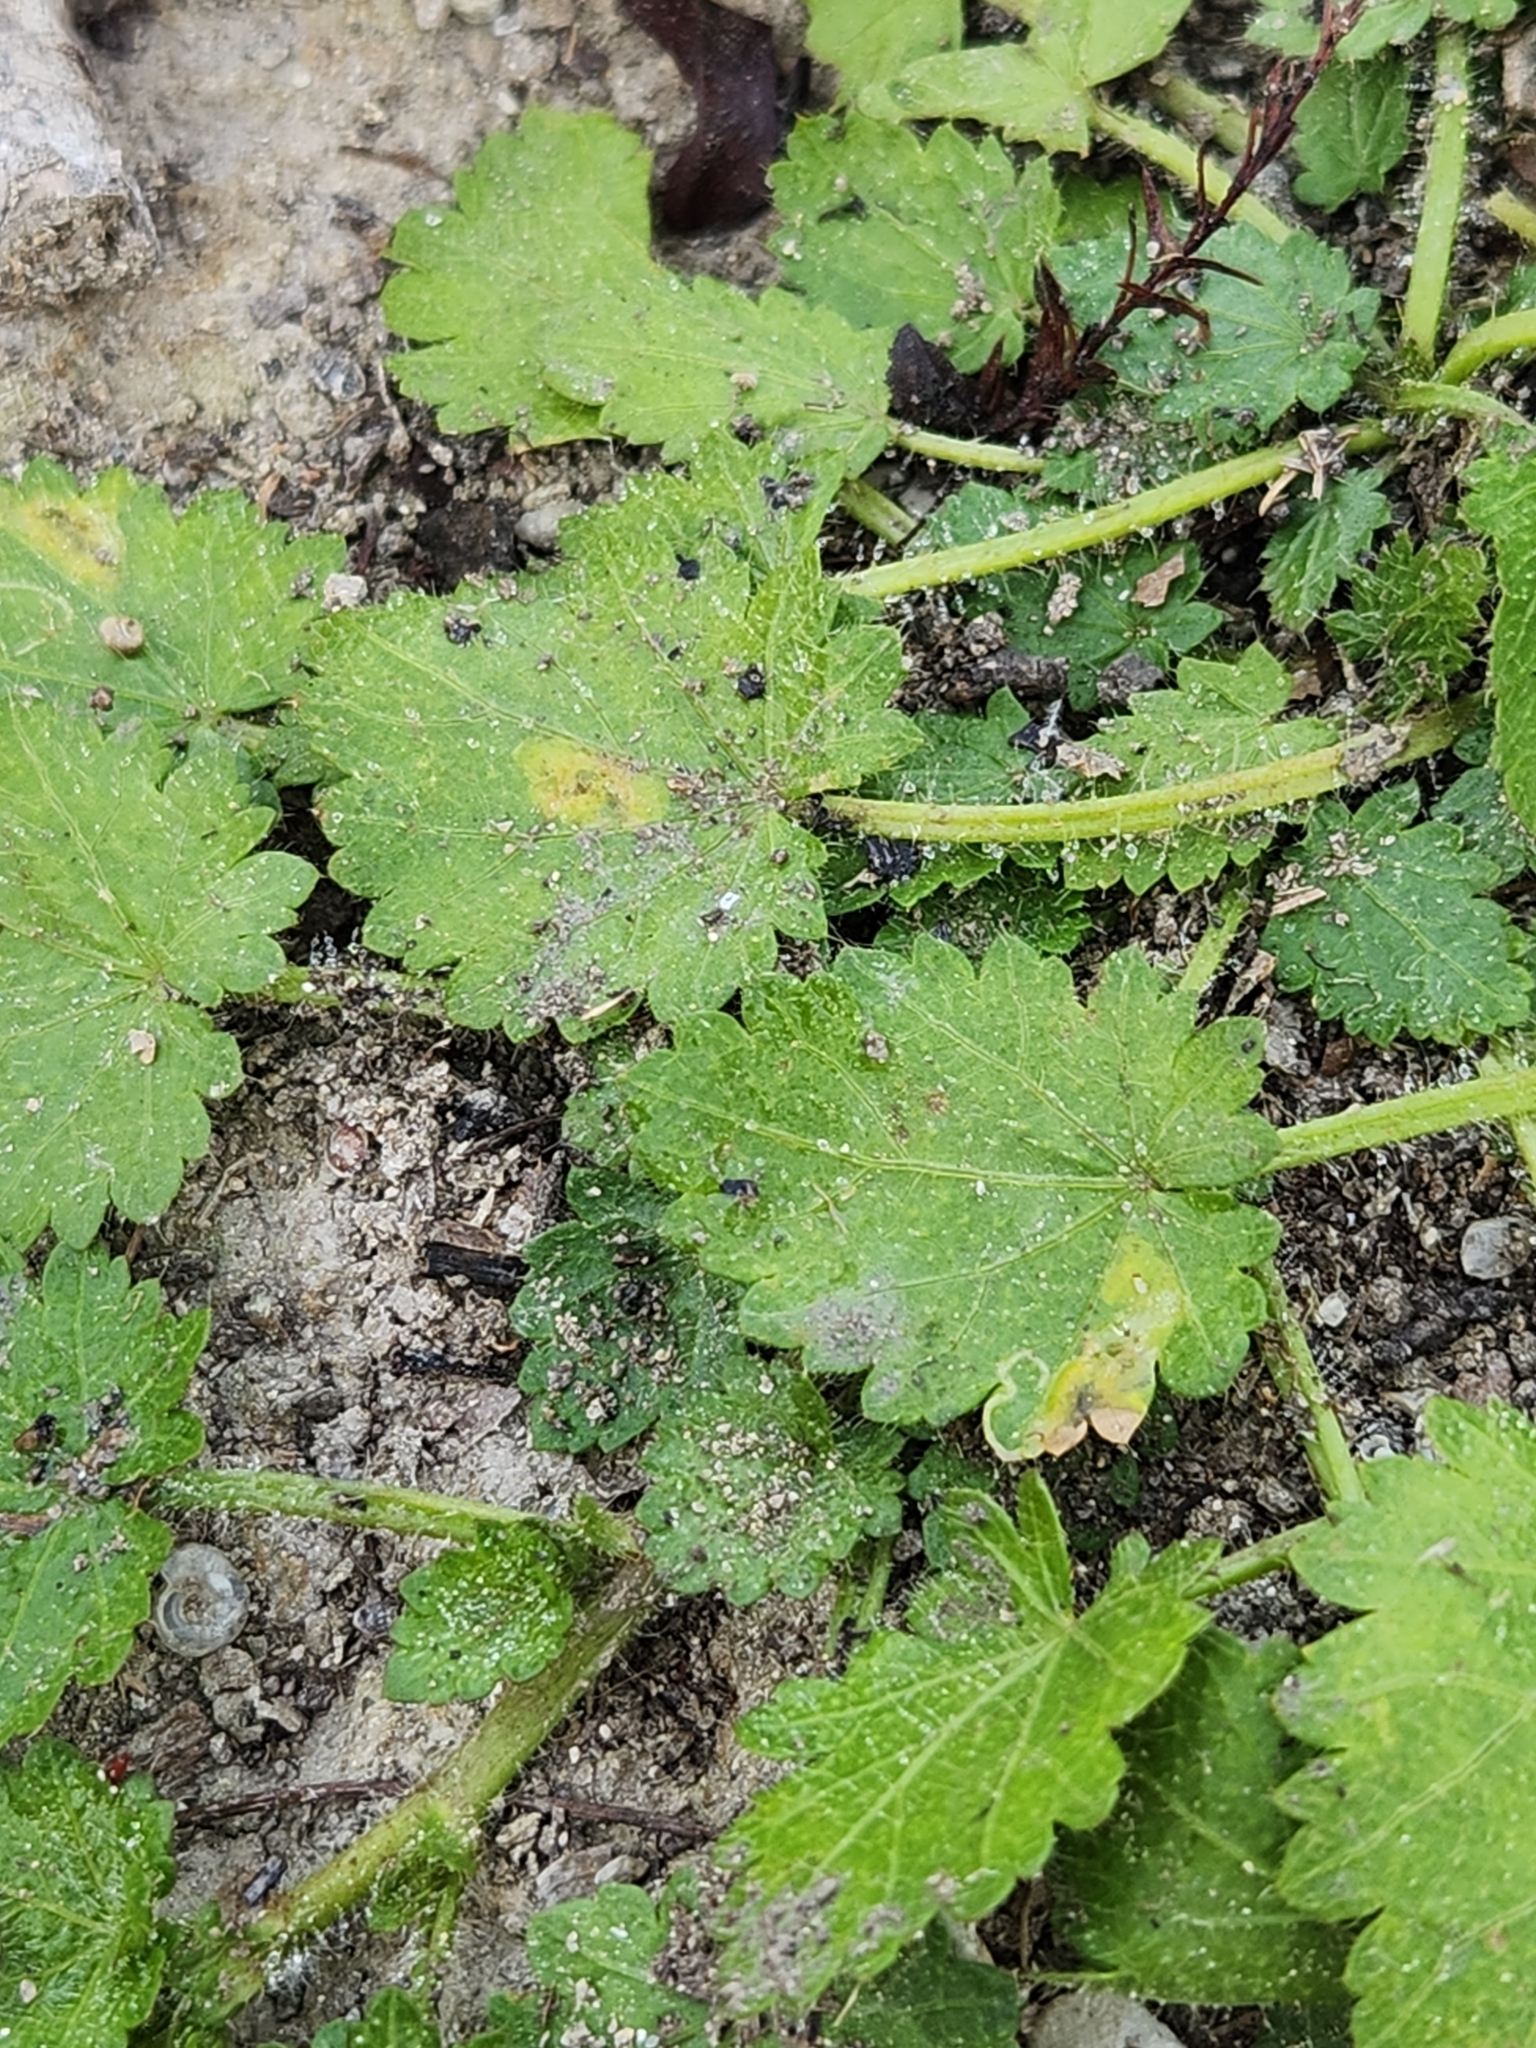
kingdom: Plantae
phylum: Tracheophyta
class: Magnoliopsida
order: Malvales
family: Malvaceae
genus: Modiola
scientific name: Modiola caroliniana
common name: Carolina bristlemallow
